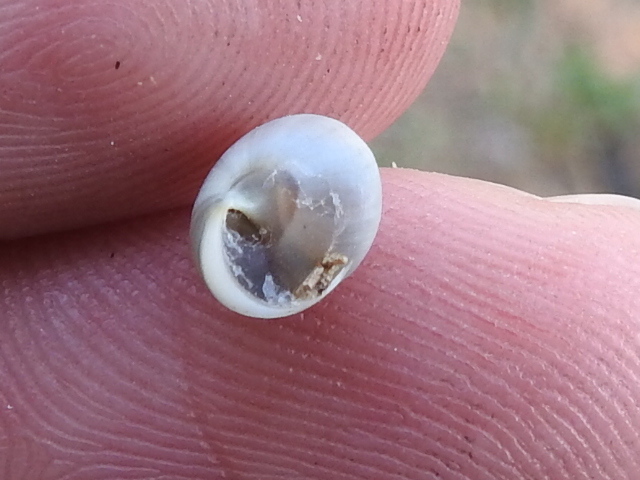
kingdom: Animalia
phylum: Mollusca
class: Gastropoda
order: Cycloneritida
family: Helicinidae
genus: Helicina
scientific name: Helicina orbiculata
